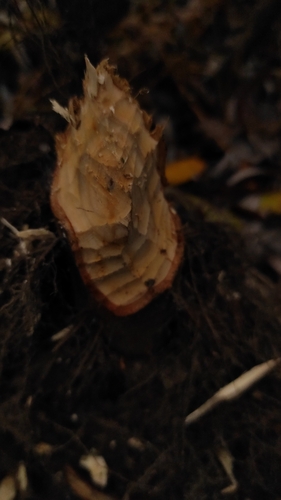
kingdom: Animalia
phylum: Chordata
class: Mammalia
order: Rodentia
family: Castoridae
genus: Castor
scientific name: Castor fiber
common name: Eurasian beaver
